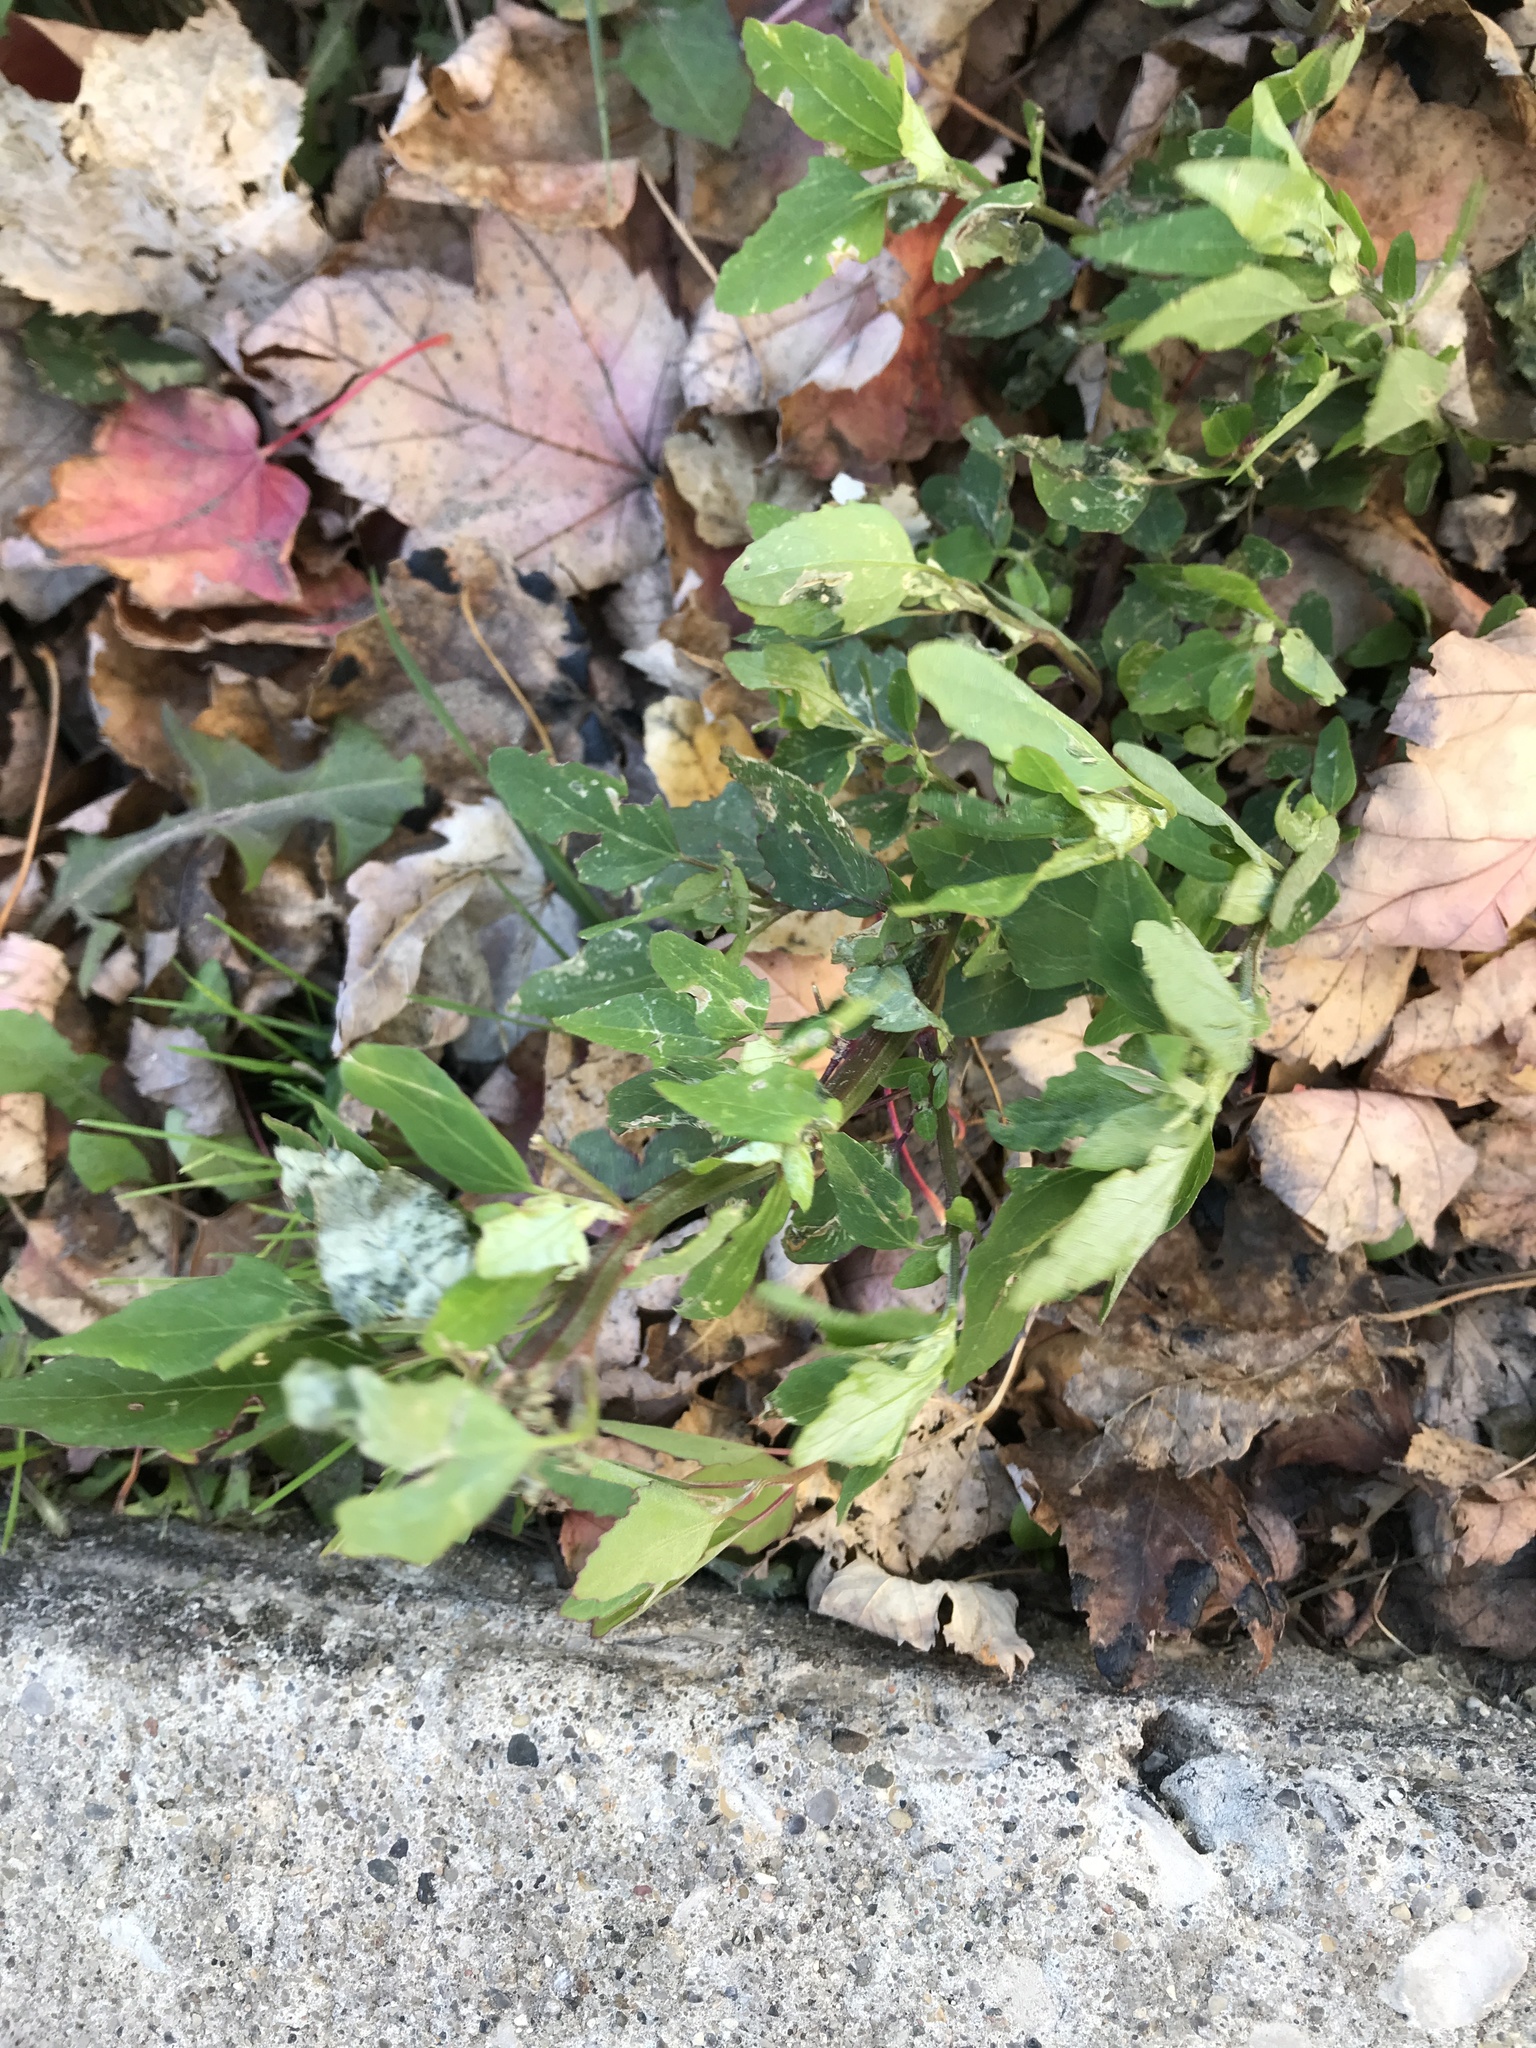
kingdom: Plantae
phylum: Tracheophyta
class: Magnoliopsida
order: Caryophyllales
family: Amaranthaceae
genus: Chenopodium
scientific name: Chenopodium album
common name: Fat-hen
